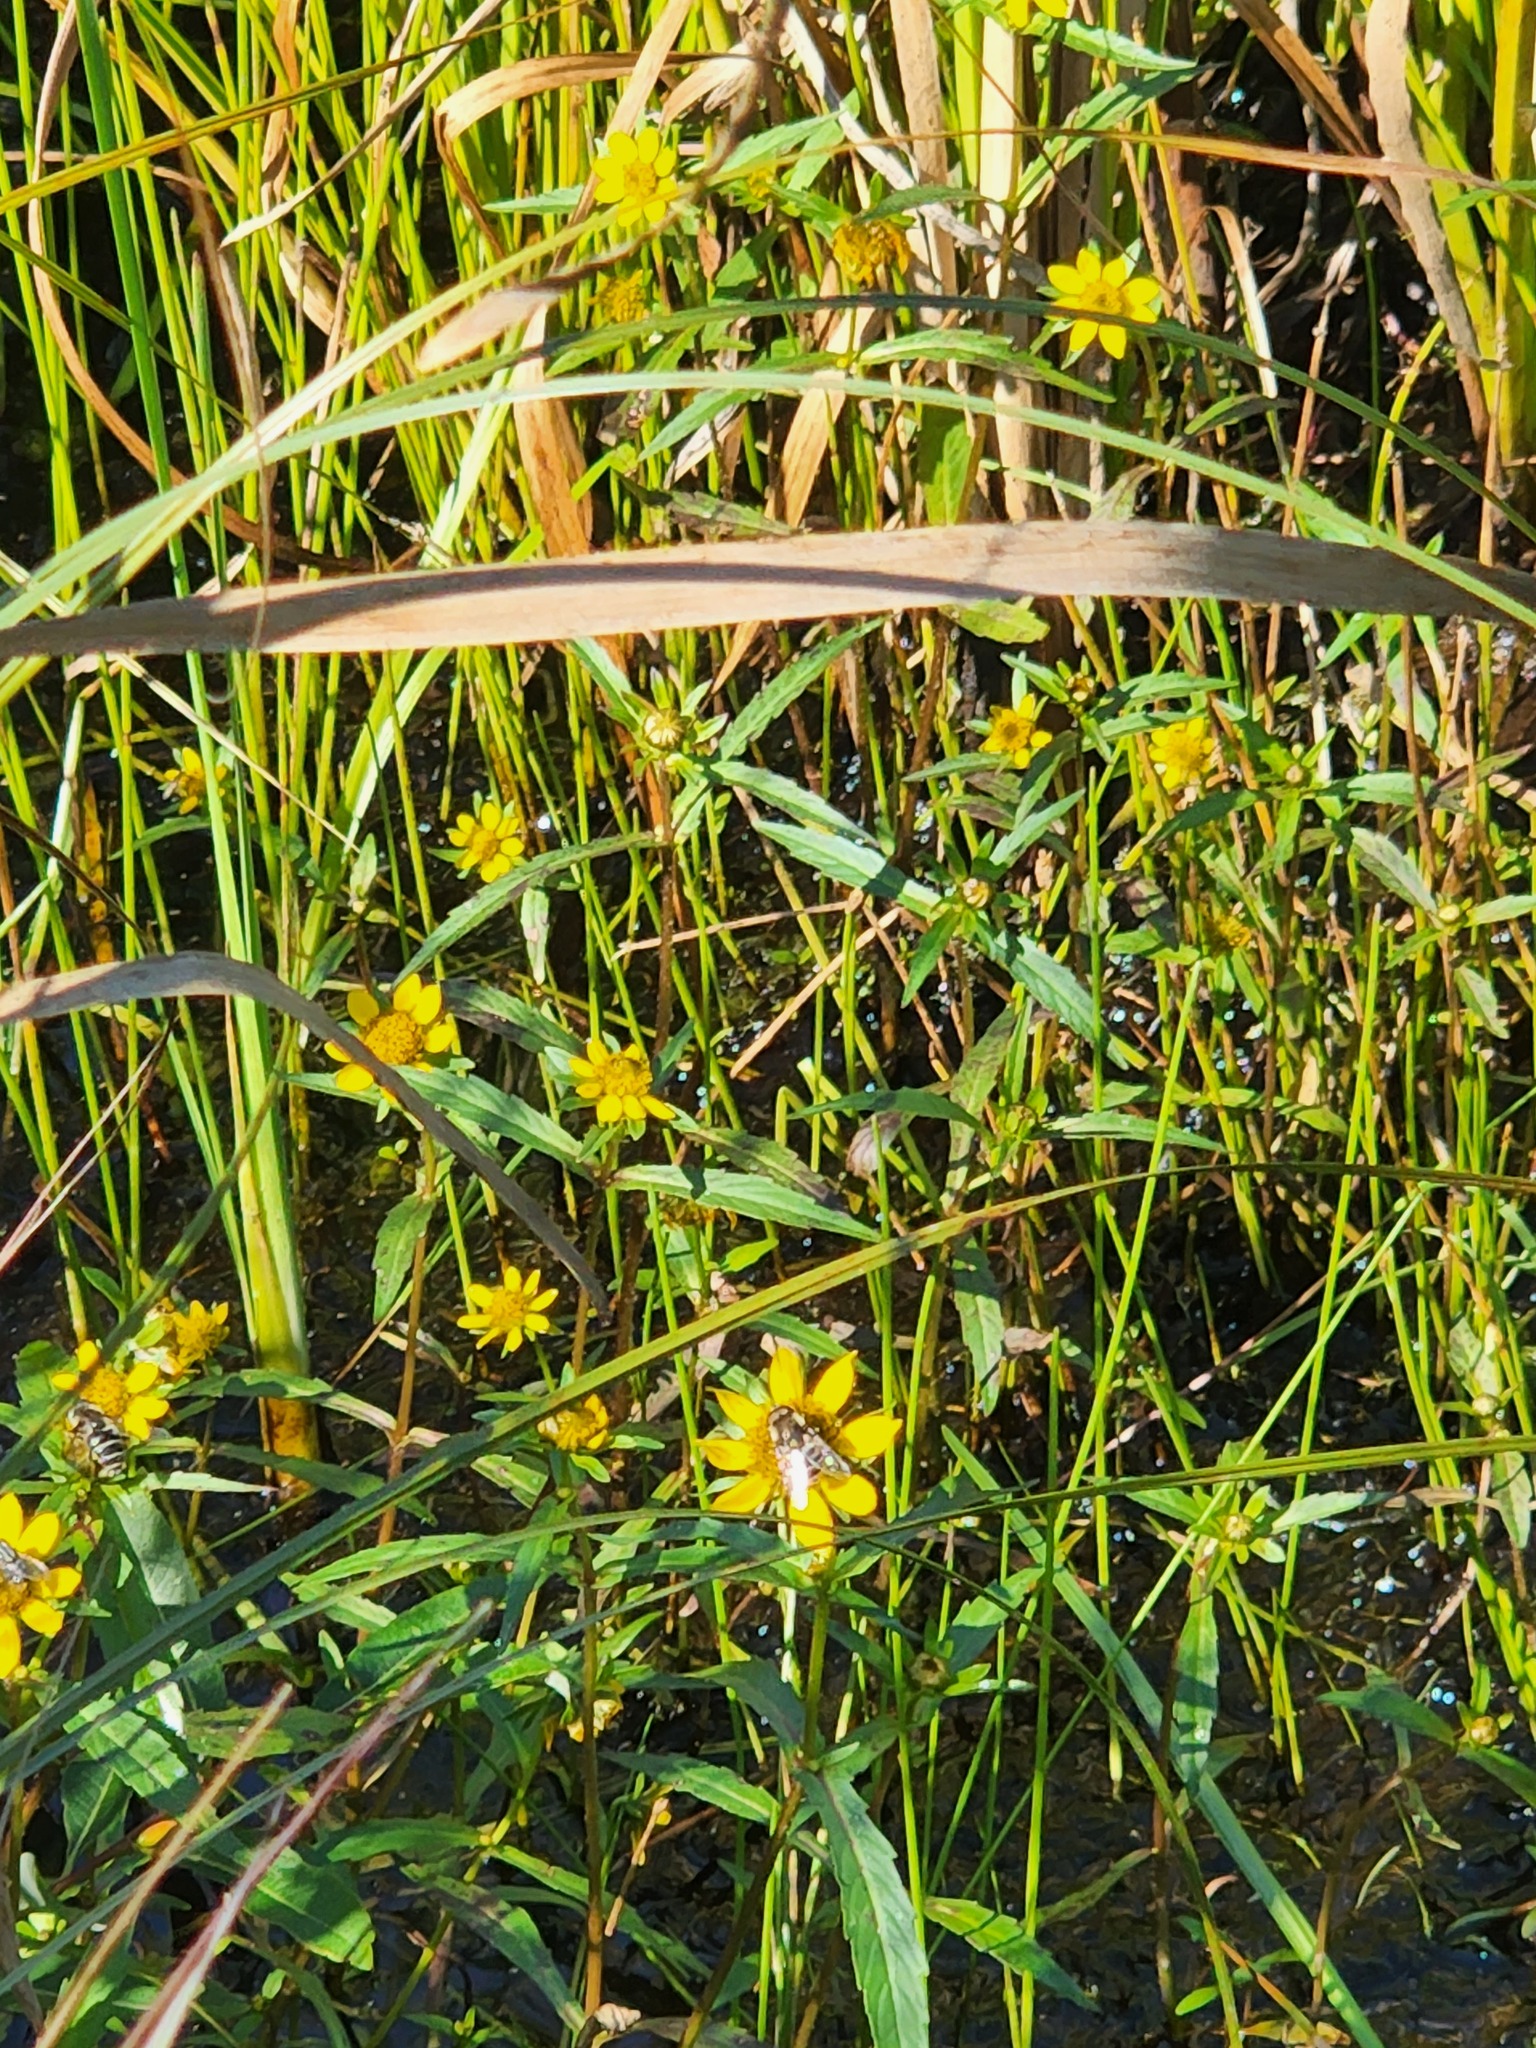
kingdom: Plantae
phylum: Tracheophyta
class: Magnoliopsida
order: Asterales
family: Asteraceae
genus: Bidens
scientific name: Bidens cernua
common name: Nodding bur-marigold
